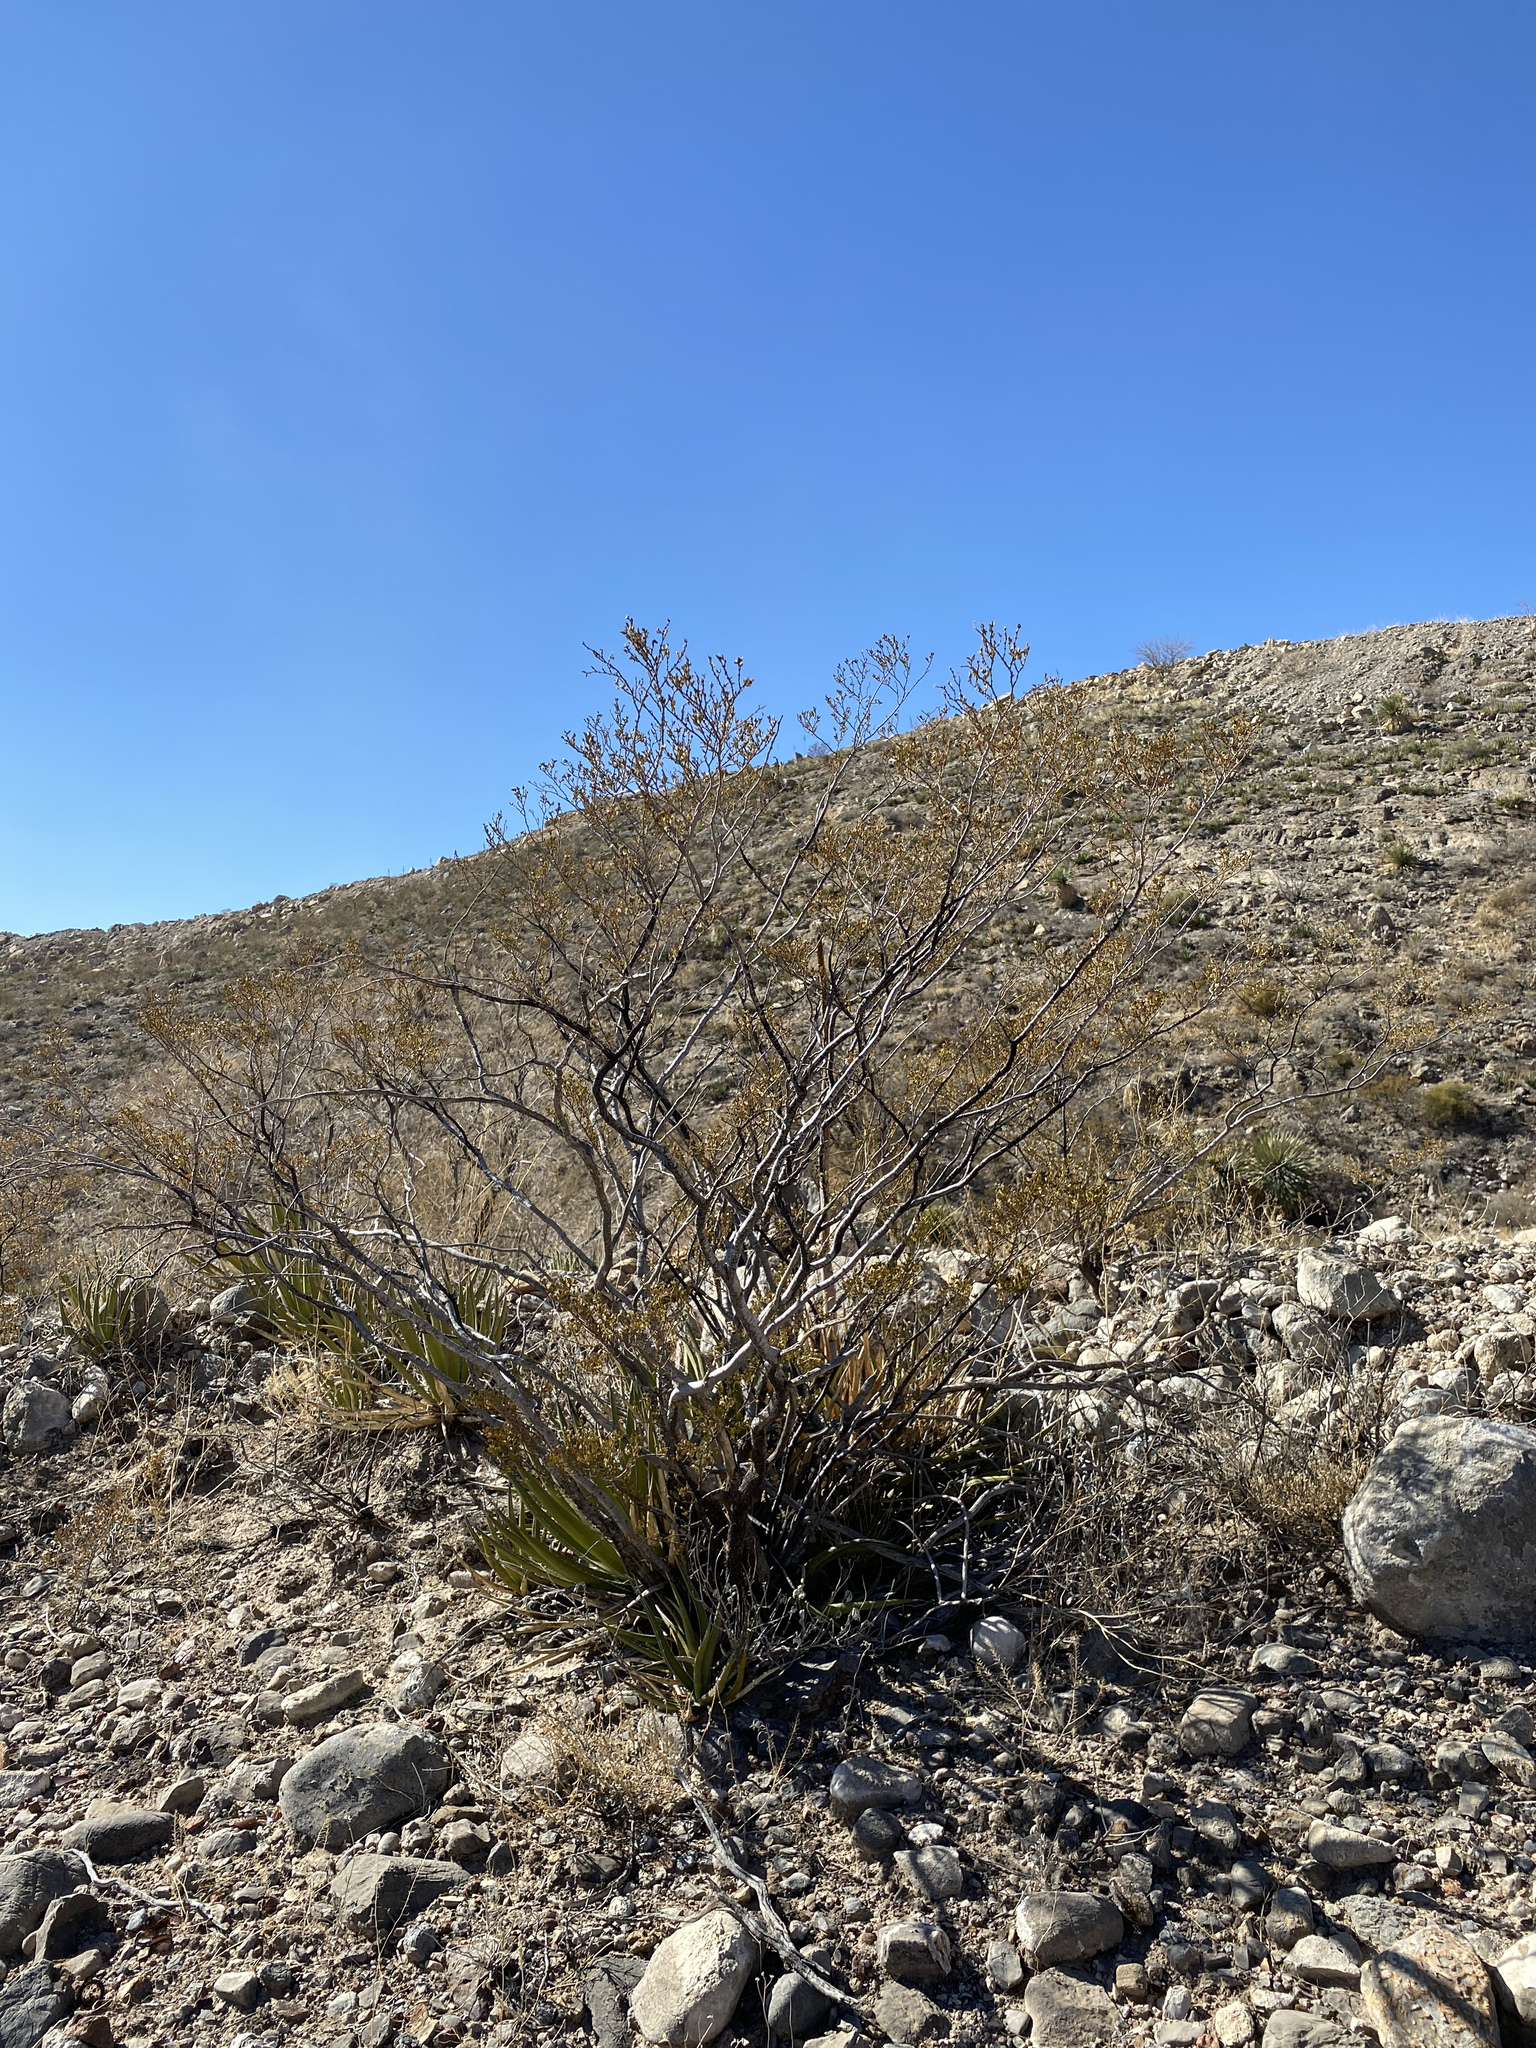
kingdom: Plantae
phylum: Tracheophyta
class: Magnoliopsida
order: Zygophyllales
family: Zygophyllaceae
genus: Larrea
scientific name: Larrea tridentata
